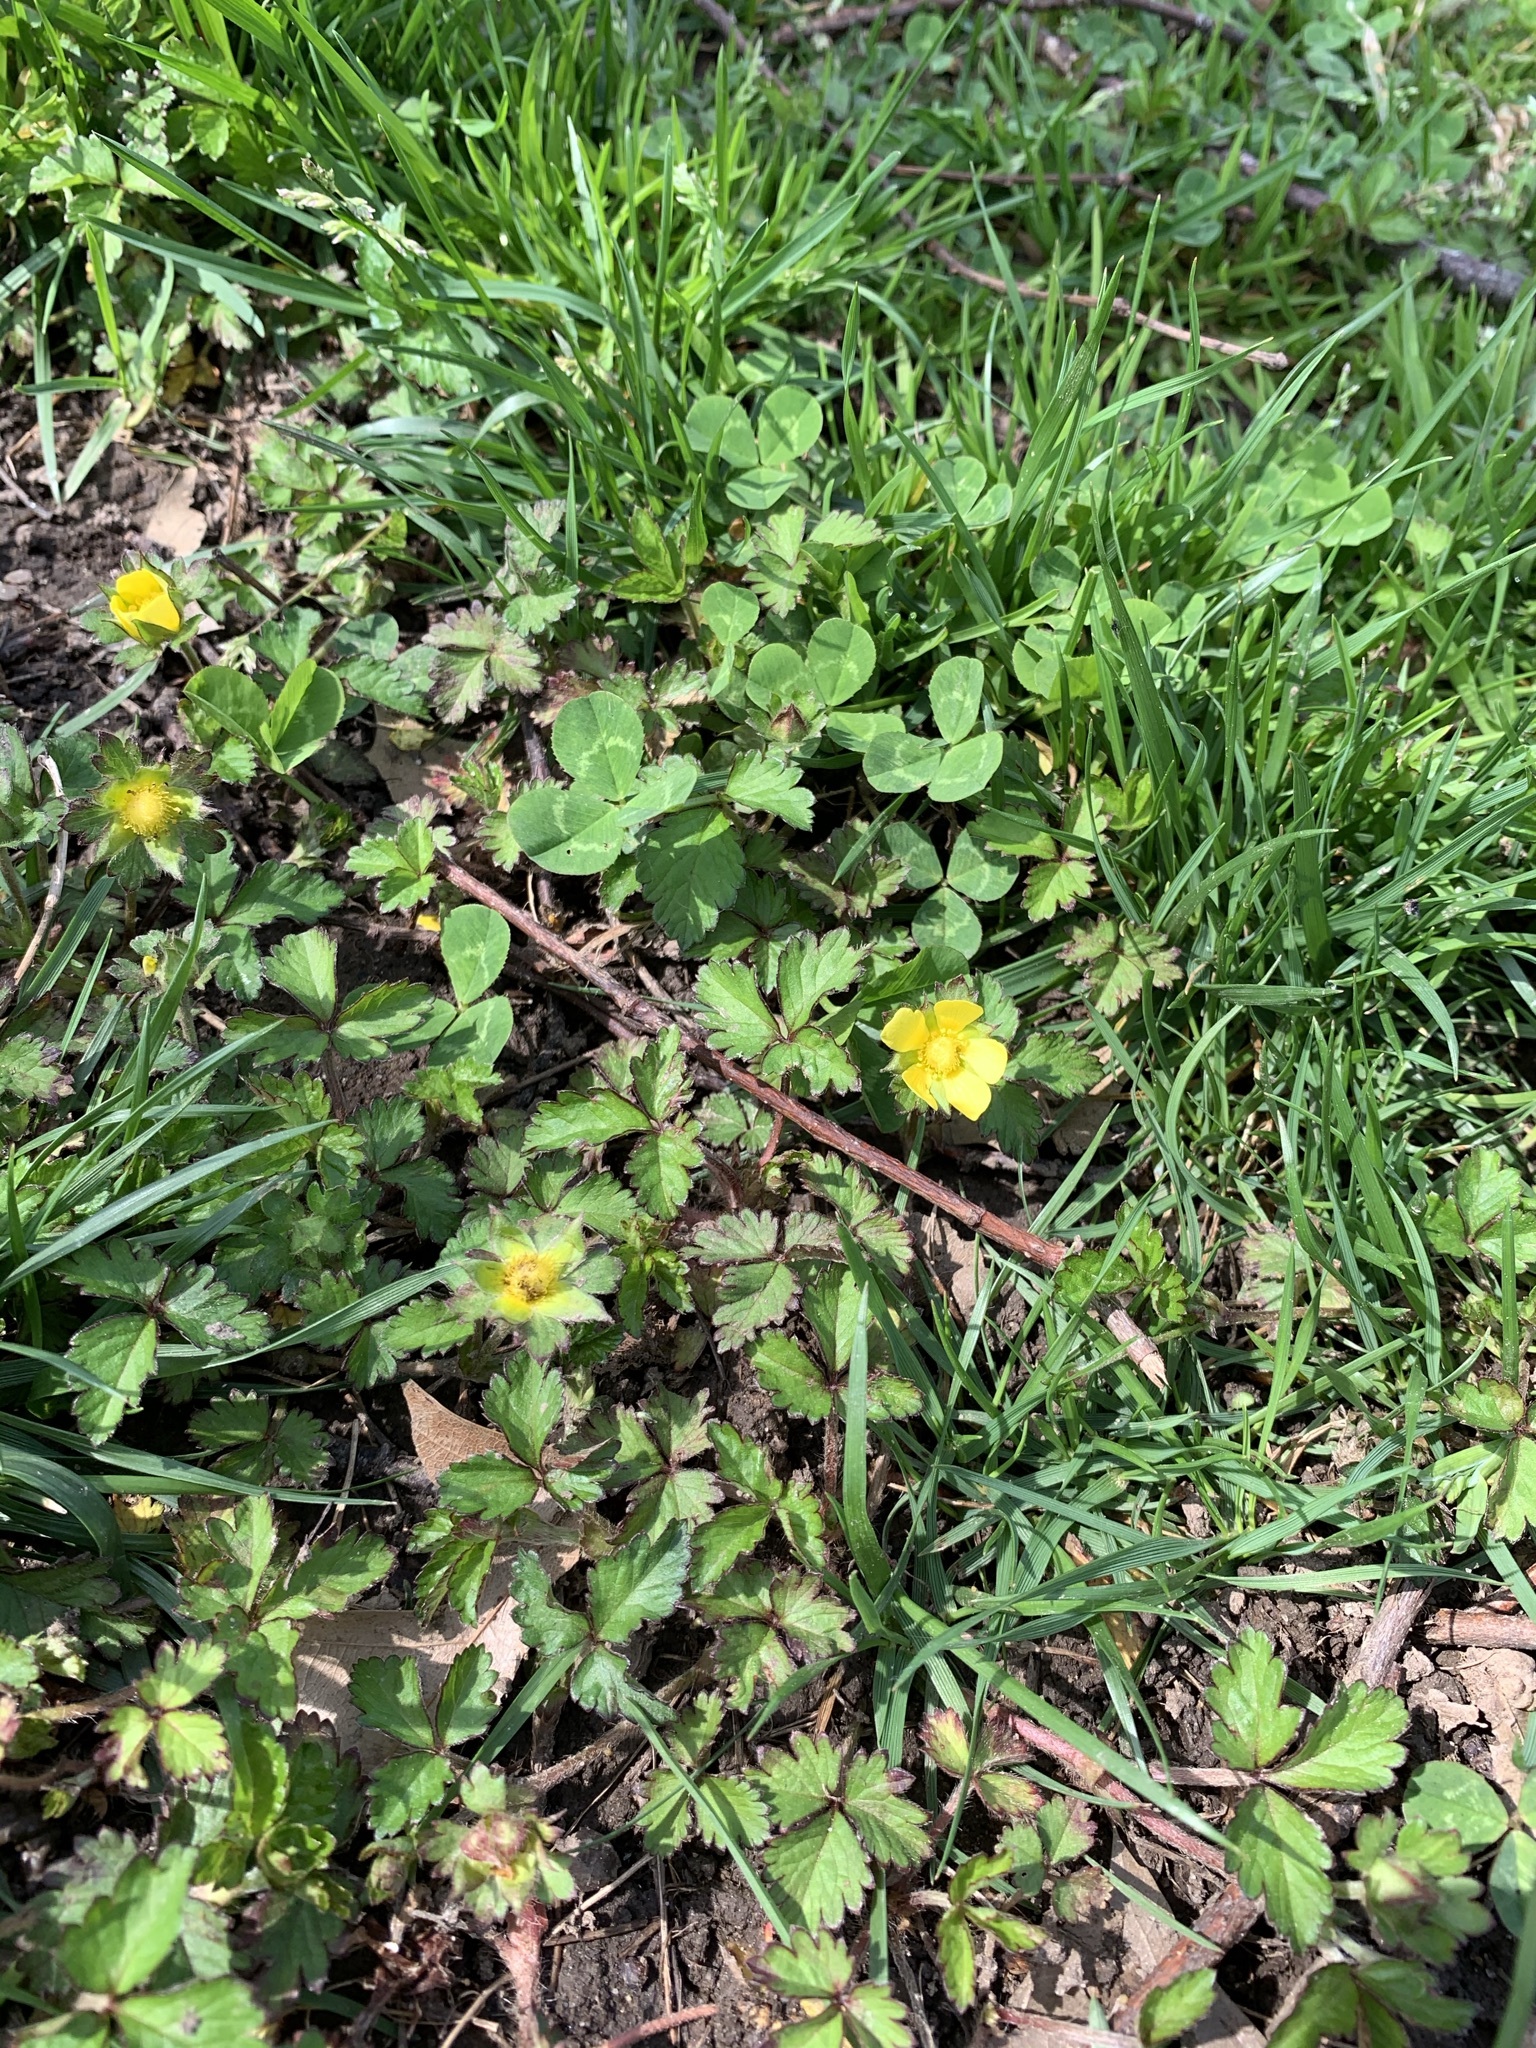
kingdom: Plantae
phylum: Tracheophyta
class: Magnoliopsida
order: Rosales
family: Rosaceae
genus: Potentilla
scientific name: Potentilla indica
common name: Yellow-flowered strawberry
